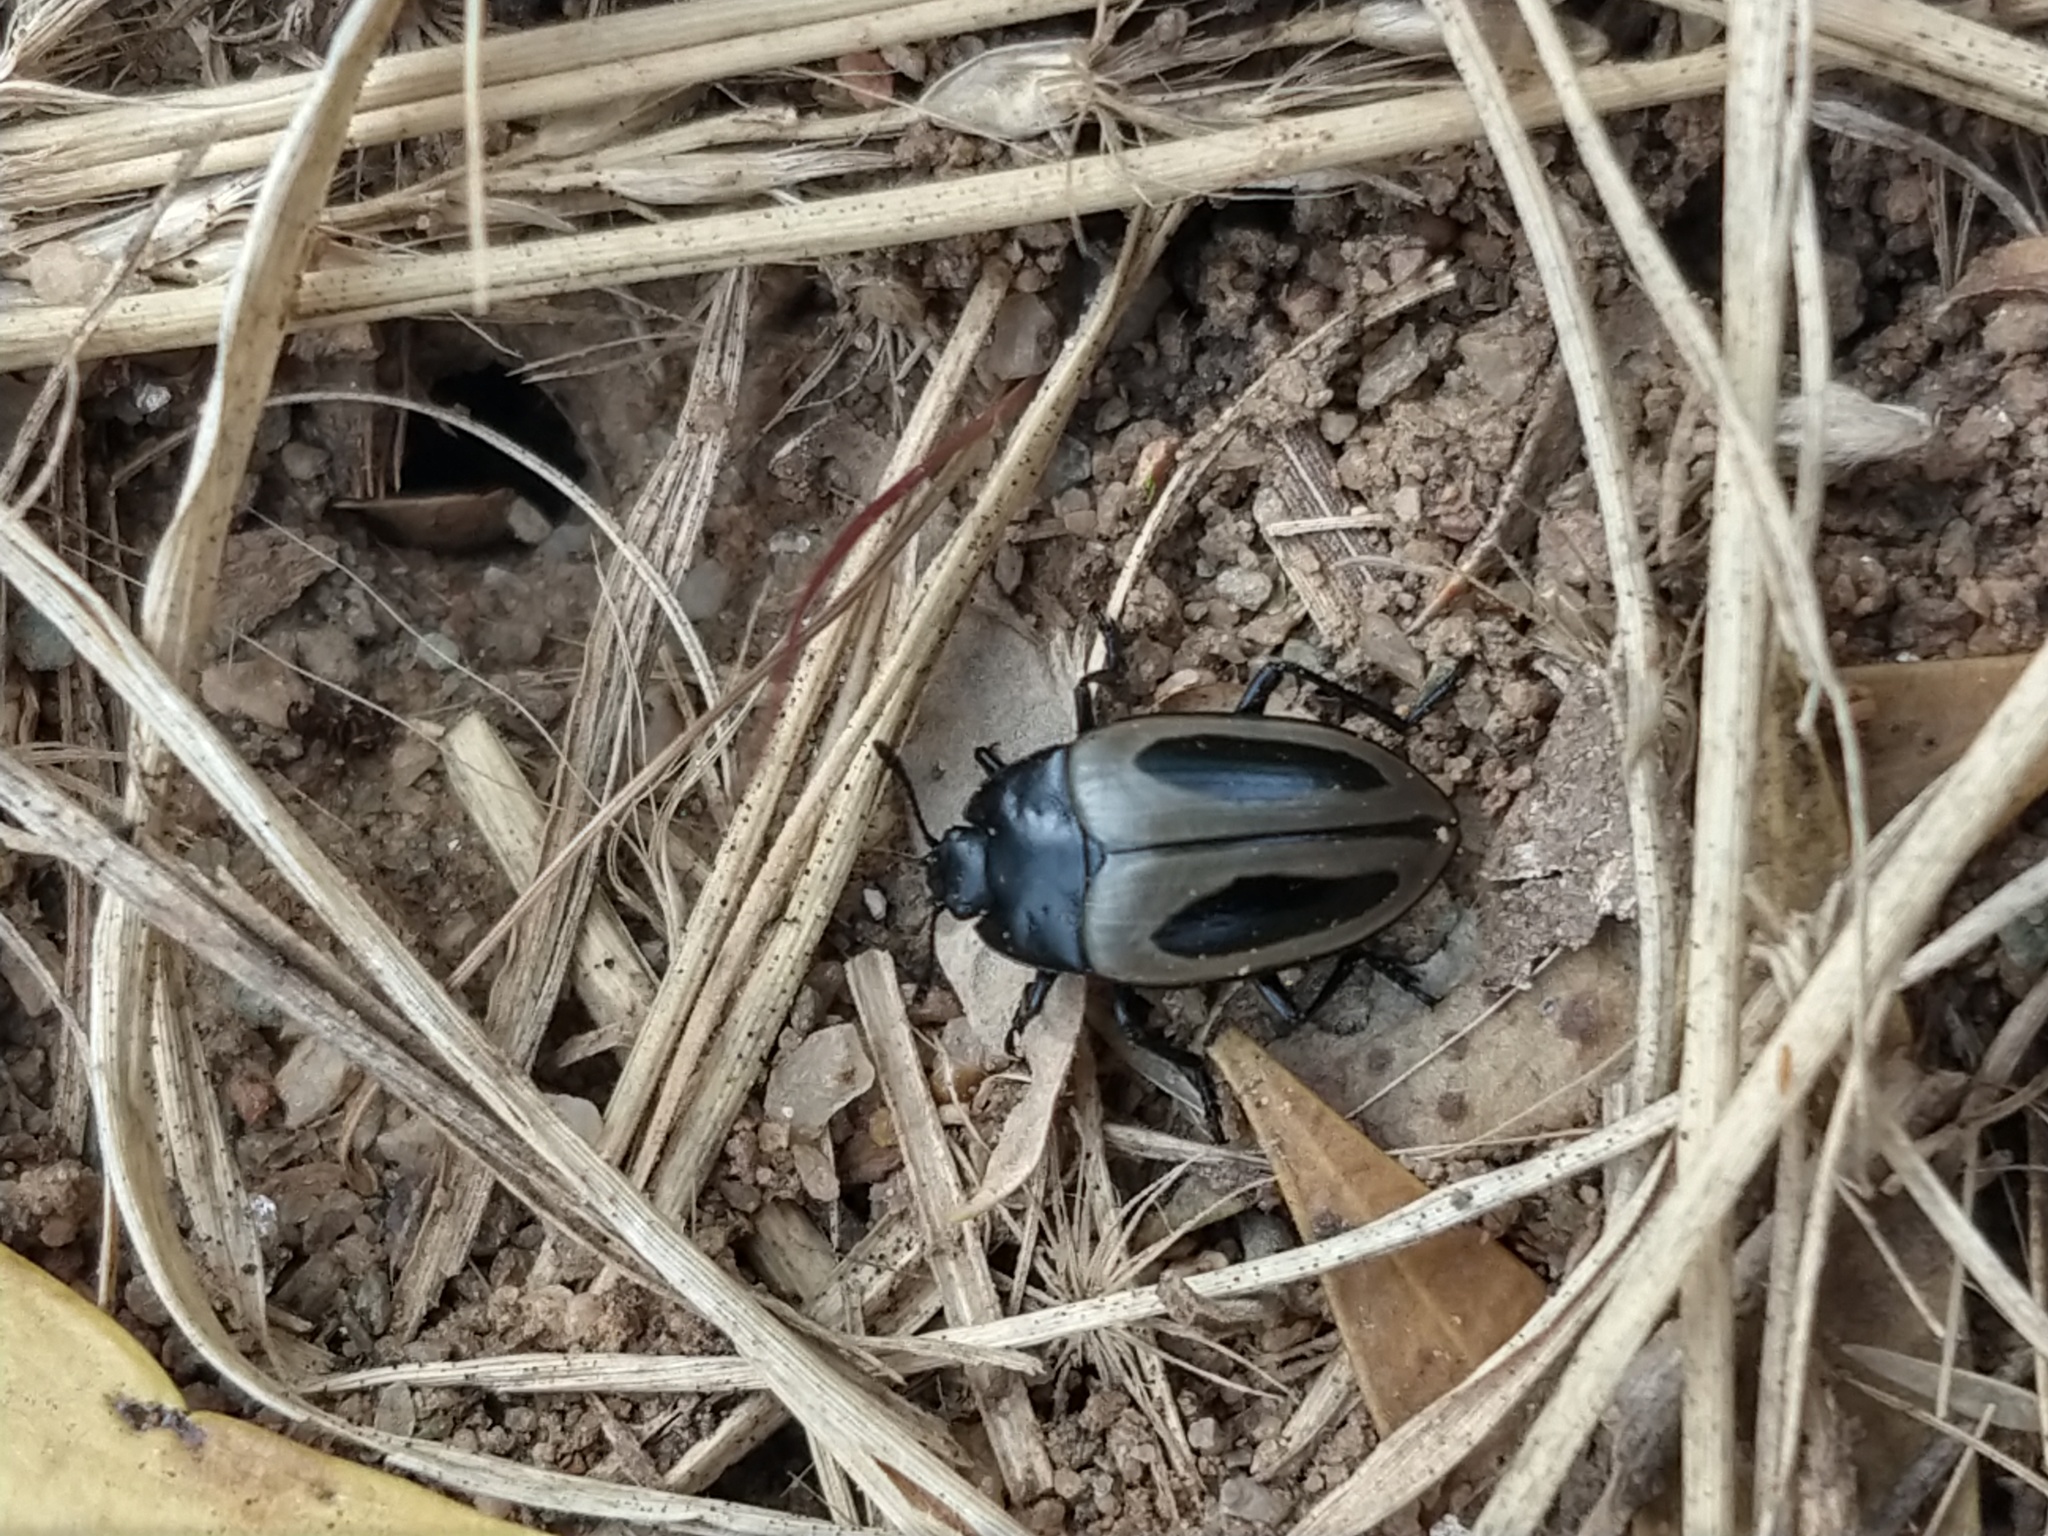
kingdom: Animalia
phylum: Arthropoda
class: Insecta
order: Coleoptera
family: Erotylidae
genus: Iphiclus
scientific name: Iphiclus
